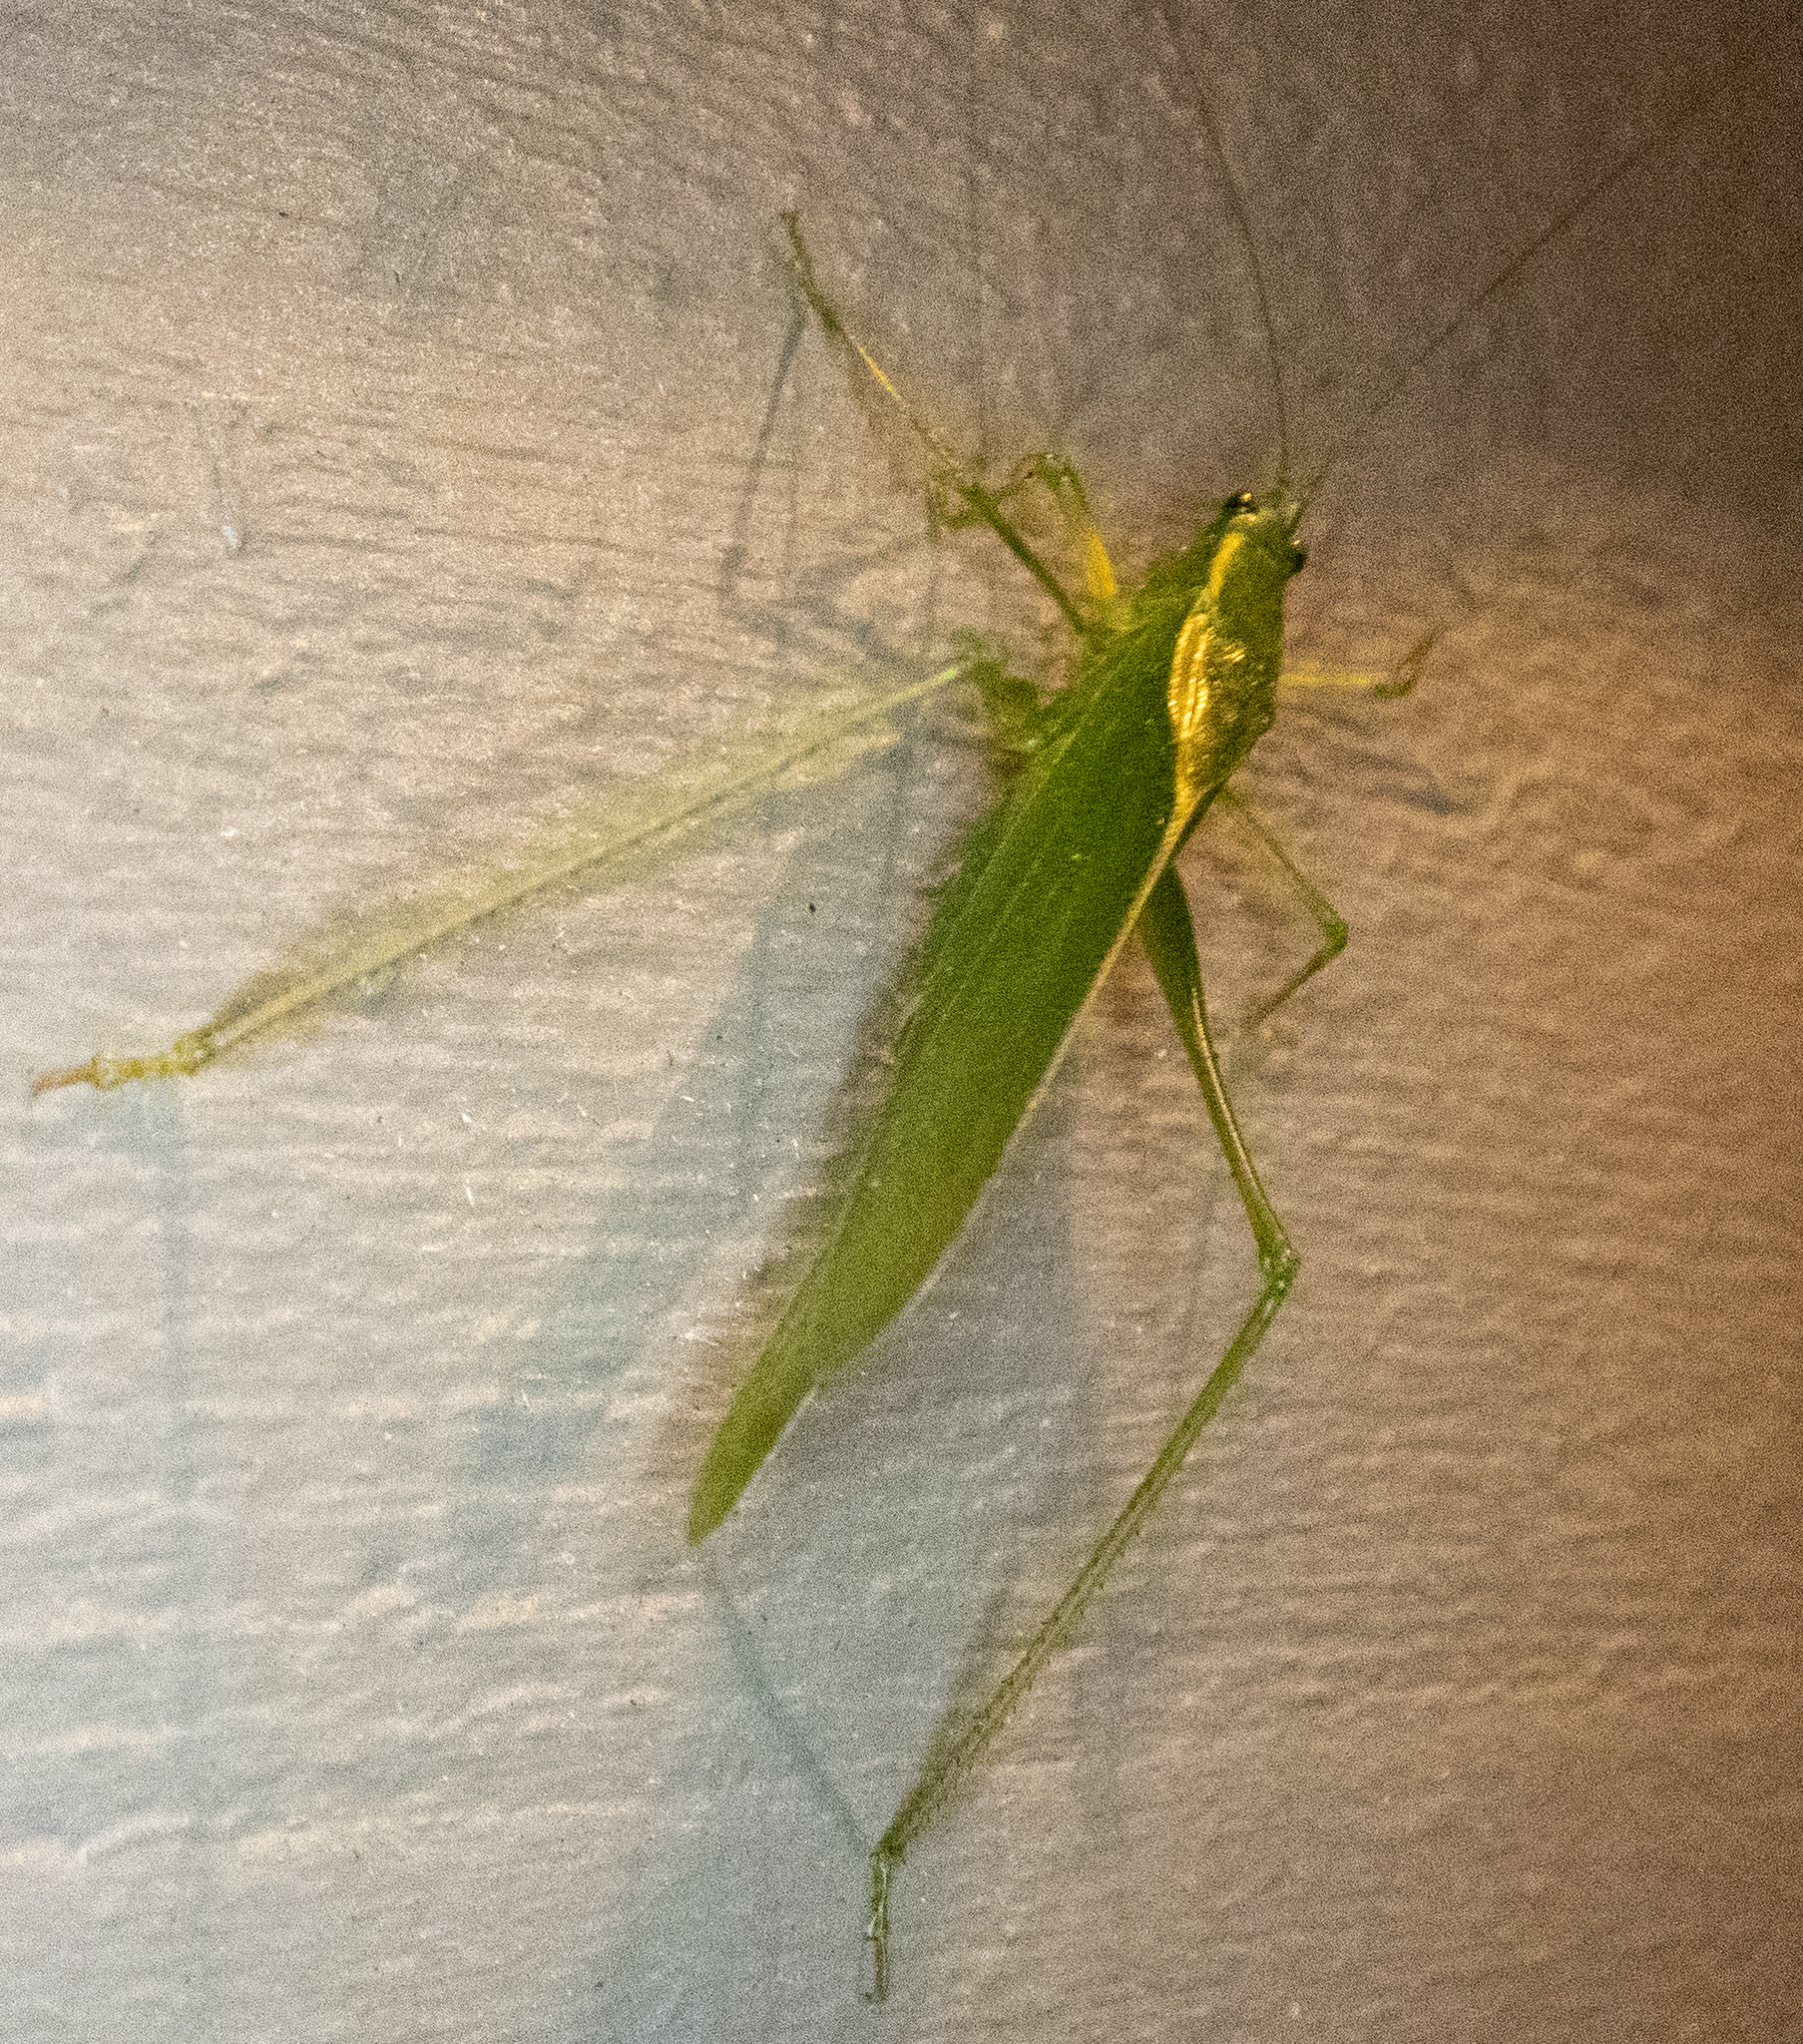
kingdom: Animalia
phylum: Arthropoda
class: Insecta
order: Orthoptera
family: Tettigoniidae
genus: Scudderia
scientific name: Scudderia septentrionalis
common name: Northern bush-katydid
